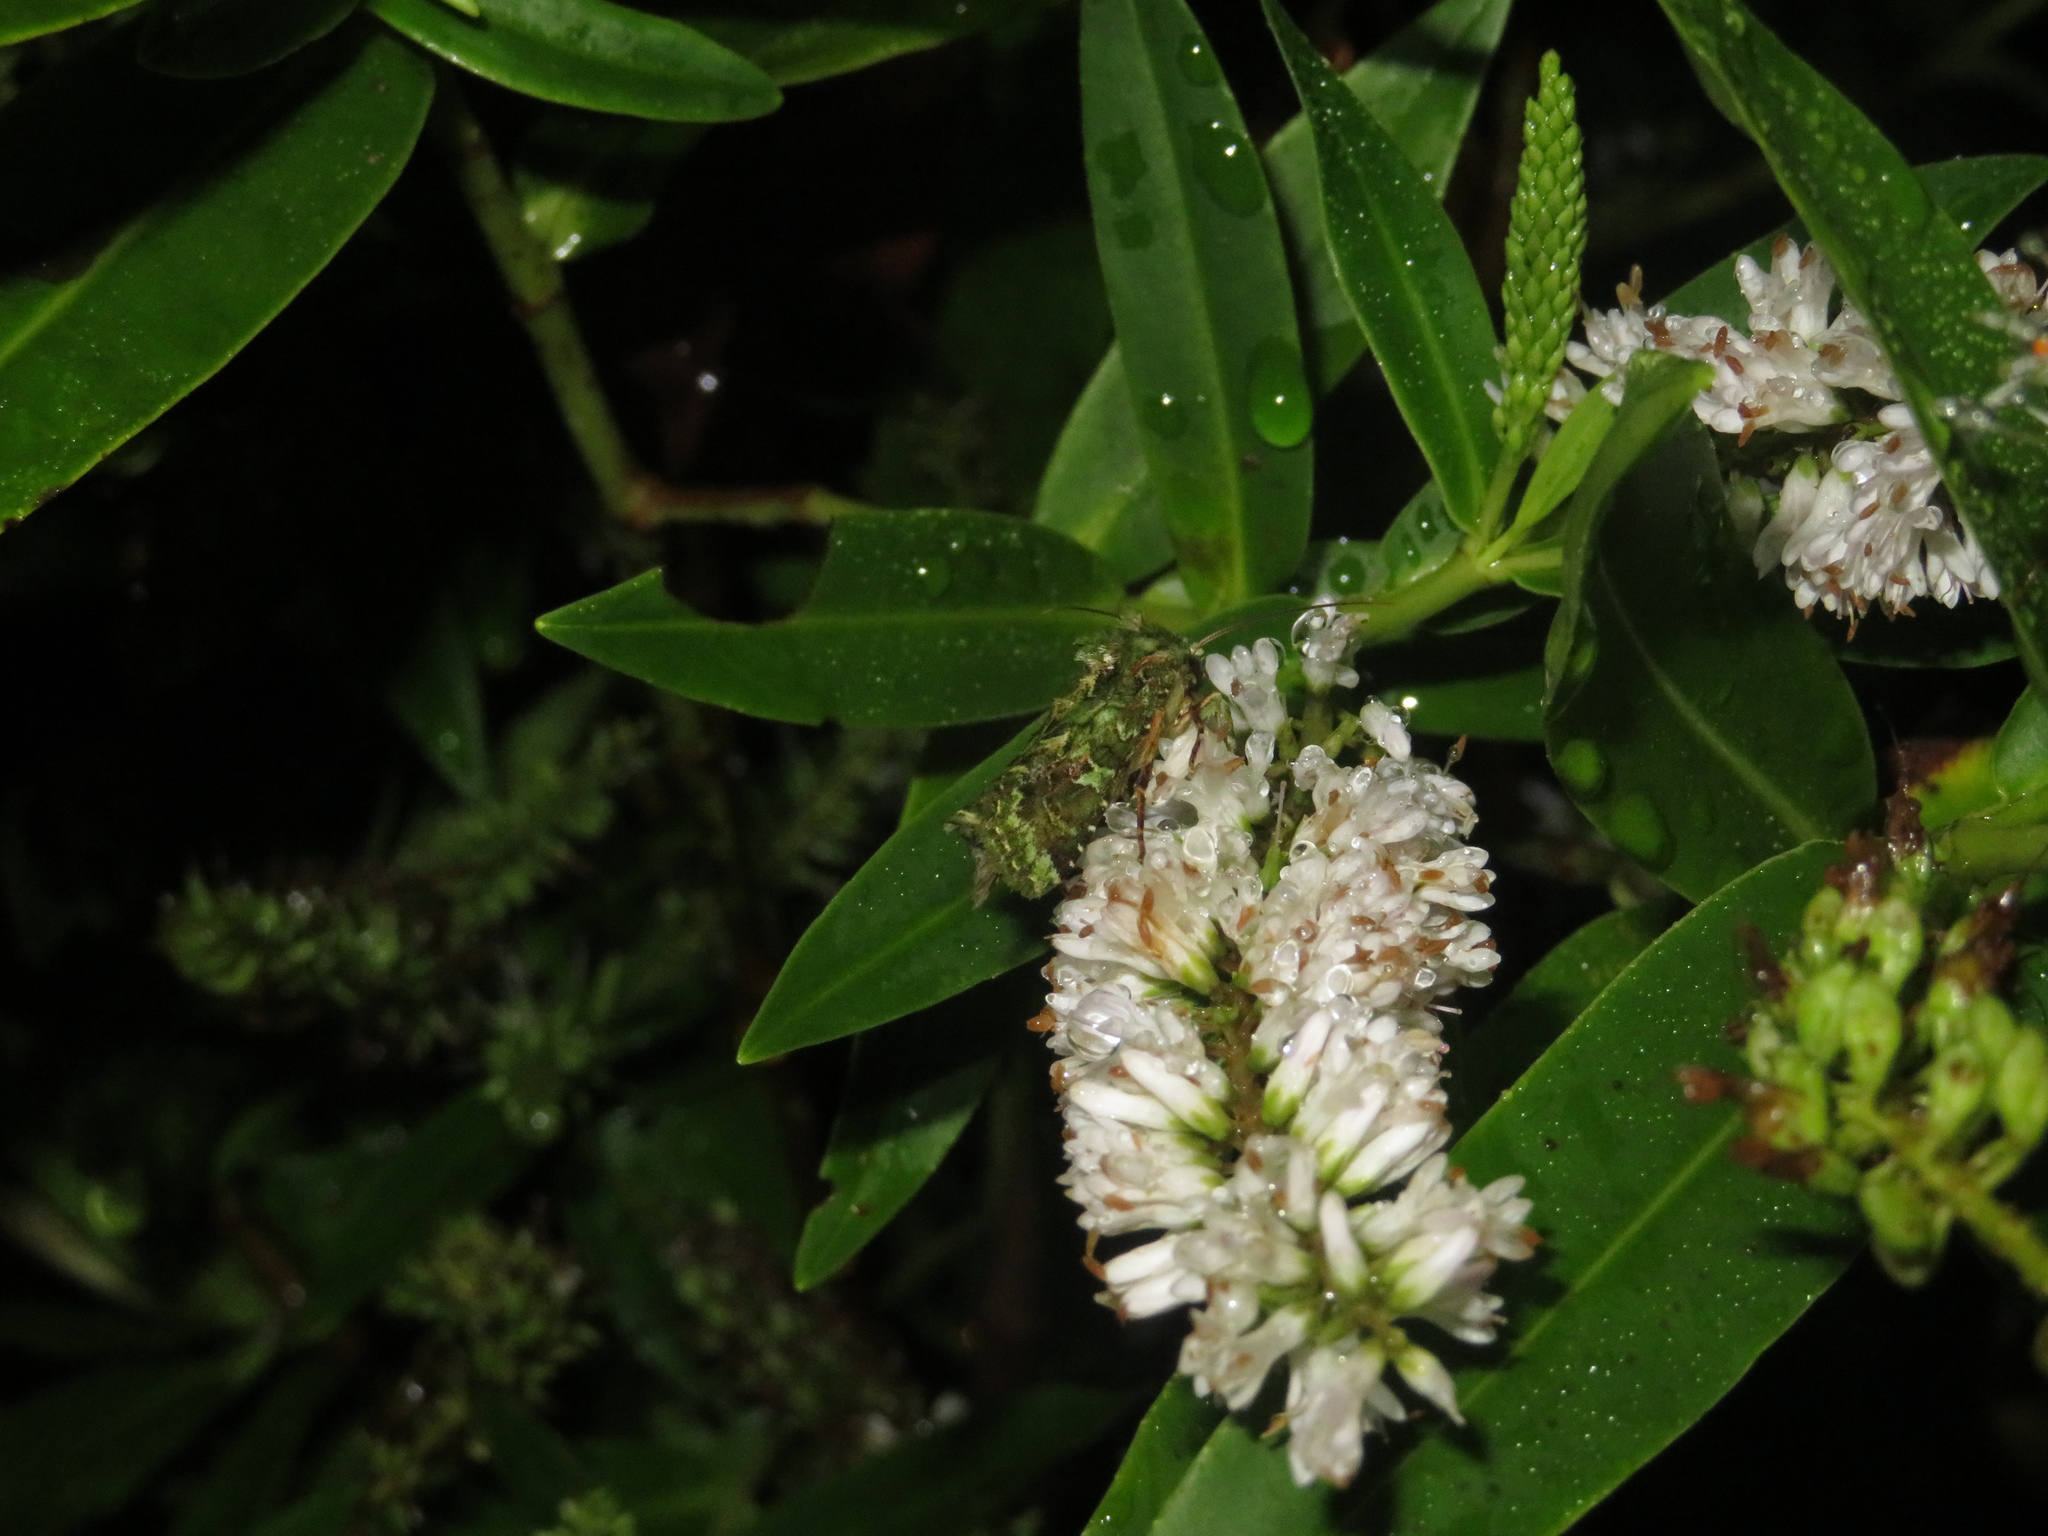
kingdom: Animalia
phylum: Arthropoda
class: Insecta
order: Lepidoptera
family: Noctuidae
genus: Feredayia
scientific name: Feredayia grammosa
